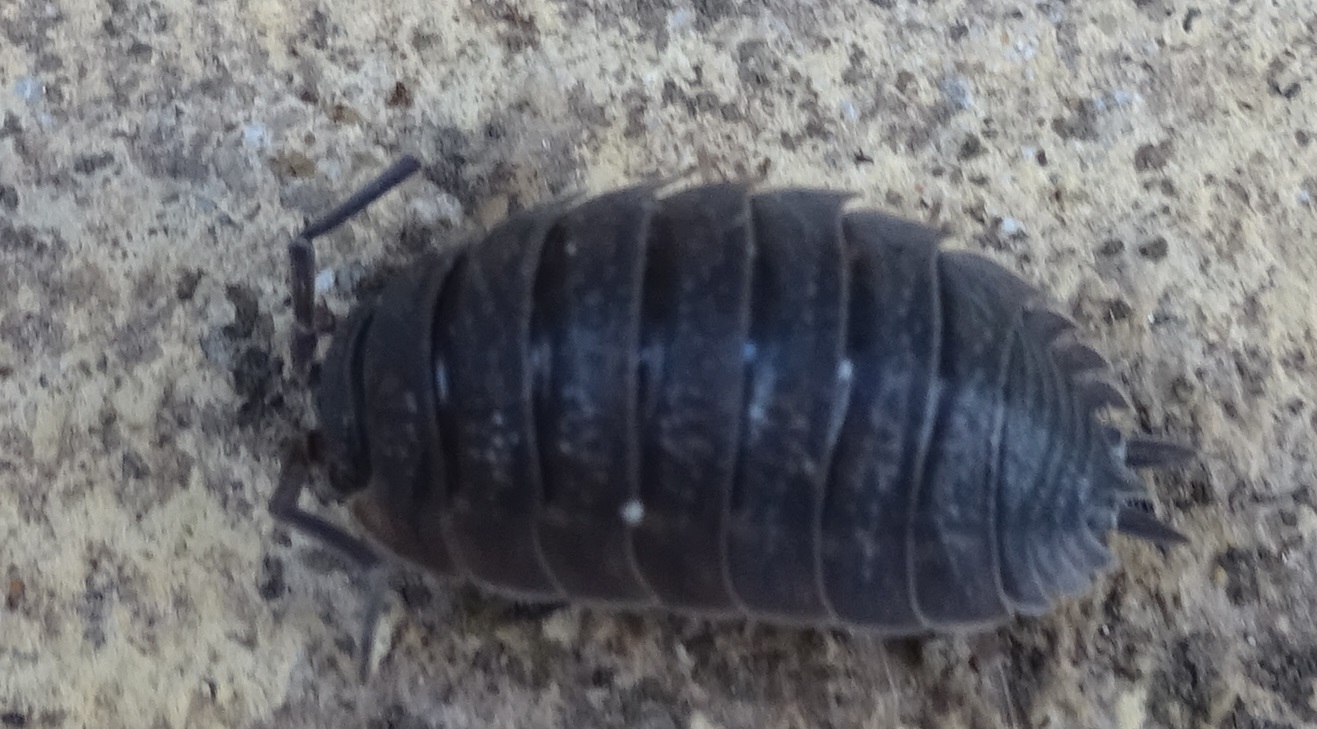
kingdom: Animalia
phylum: Arthropoda
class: Malacostraca
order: Isopoda
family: Porcellionidae
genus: Porcellio
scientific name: Porcellio scaber
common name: Common rough woodlouse
